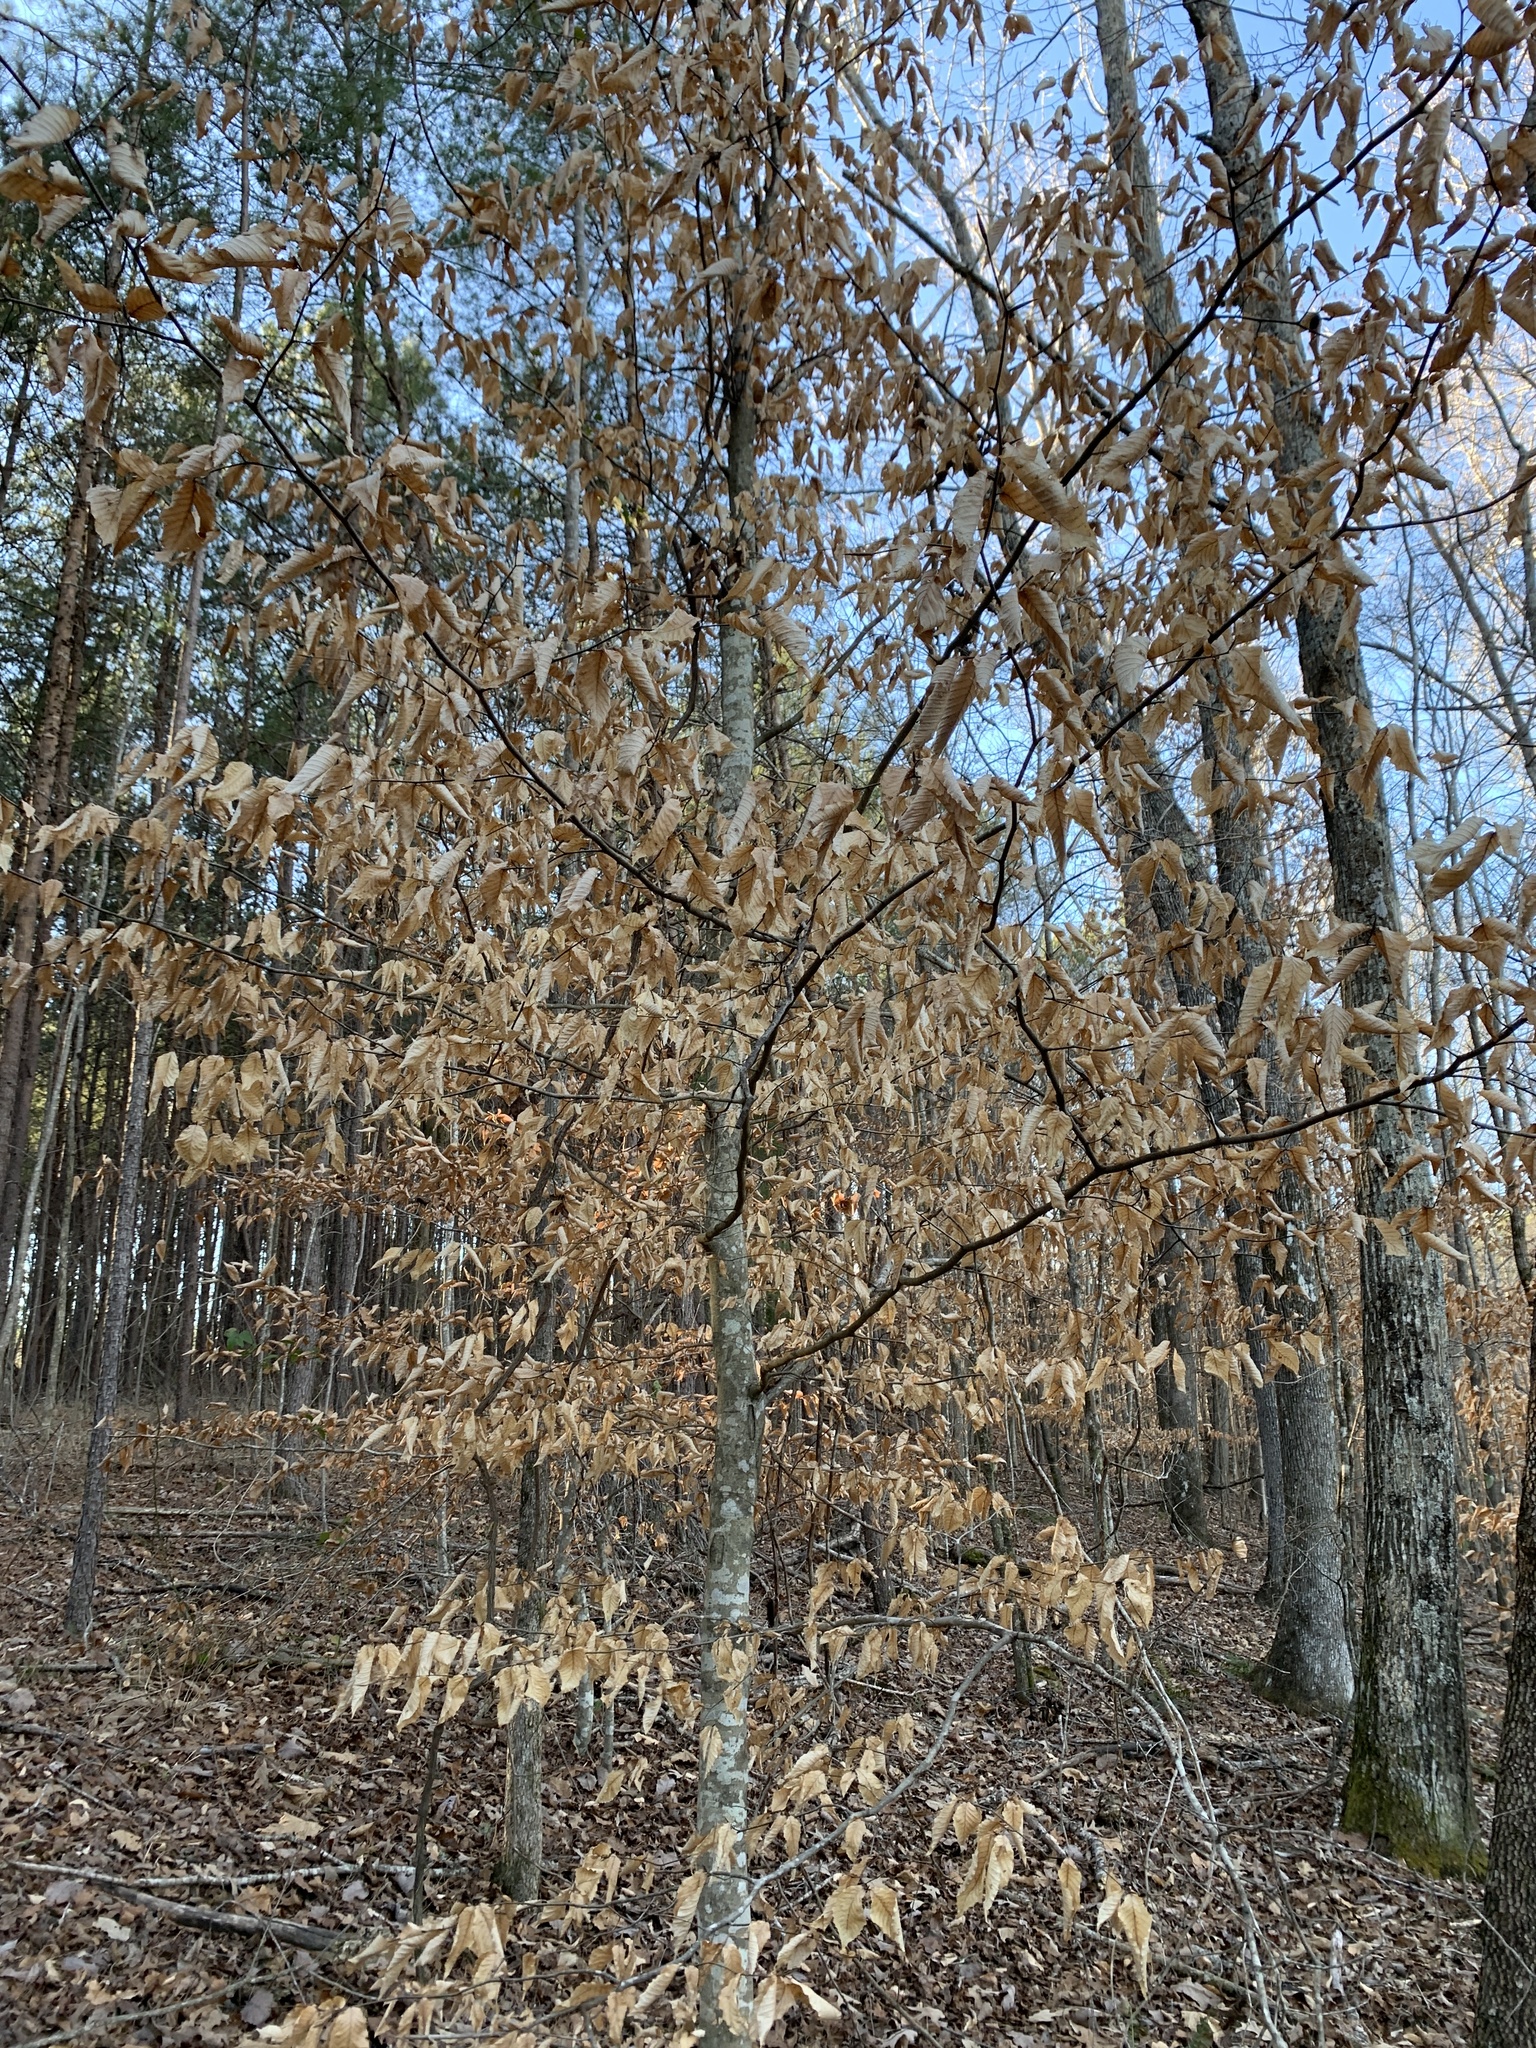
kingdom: Plantae
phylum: Tracheophyta
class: Magnoliopsida
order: Fagales
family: Fagaceae
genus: Fagus
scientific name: Fagus grandifolia
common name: American beech
